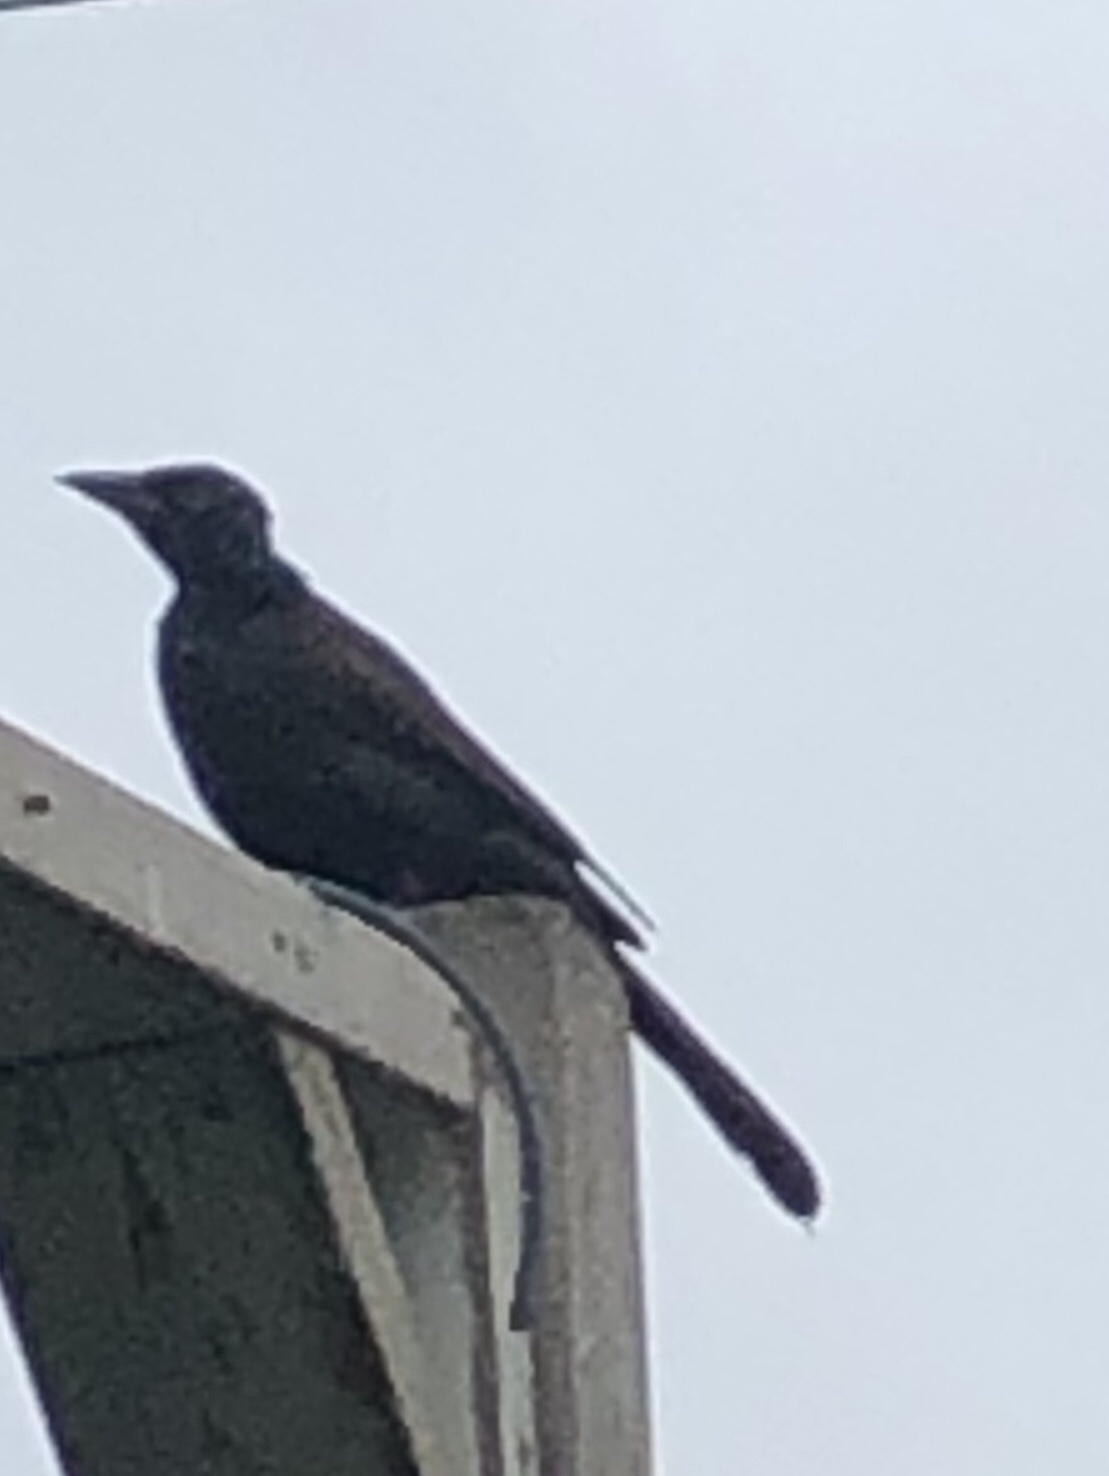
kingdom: Animalia
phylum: Chordata
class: Aves
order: Passeriformes
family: Icteridae
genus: Quiscalus
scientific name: Quiscalus quiscula
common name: Common grackle
